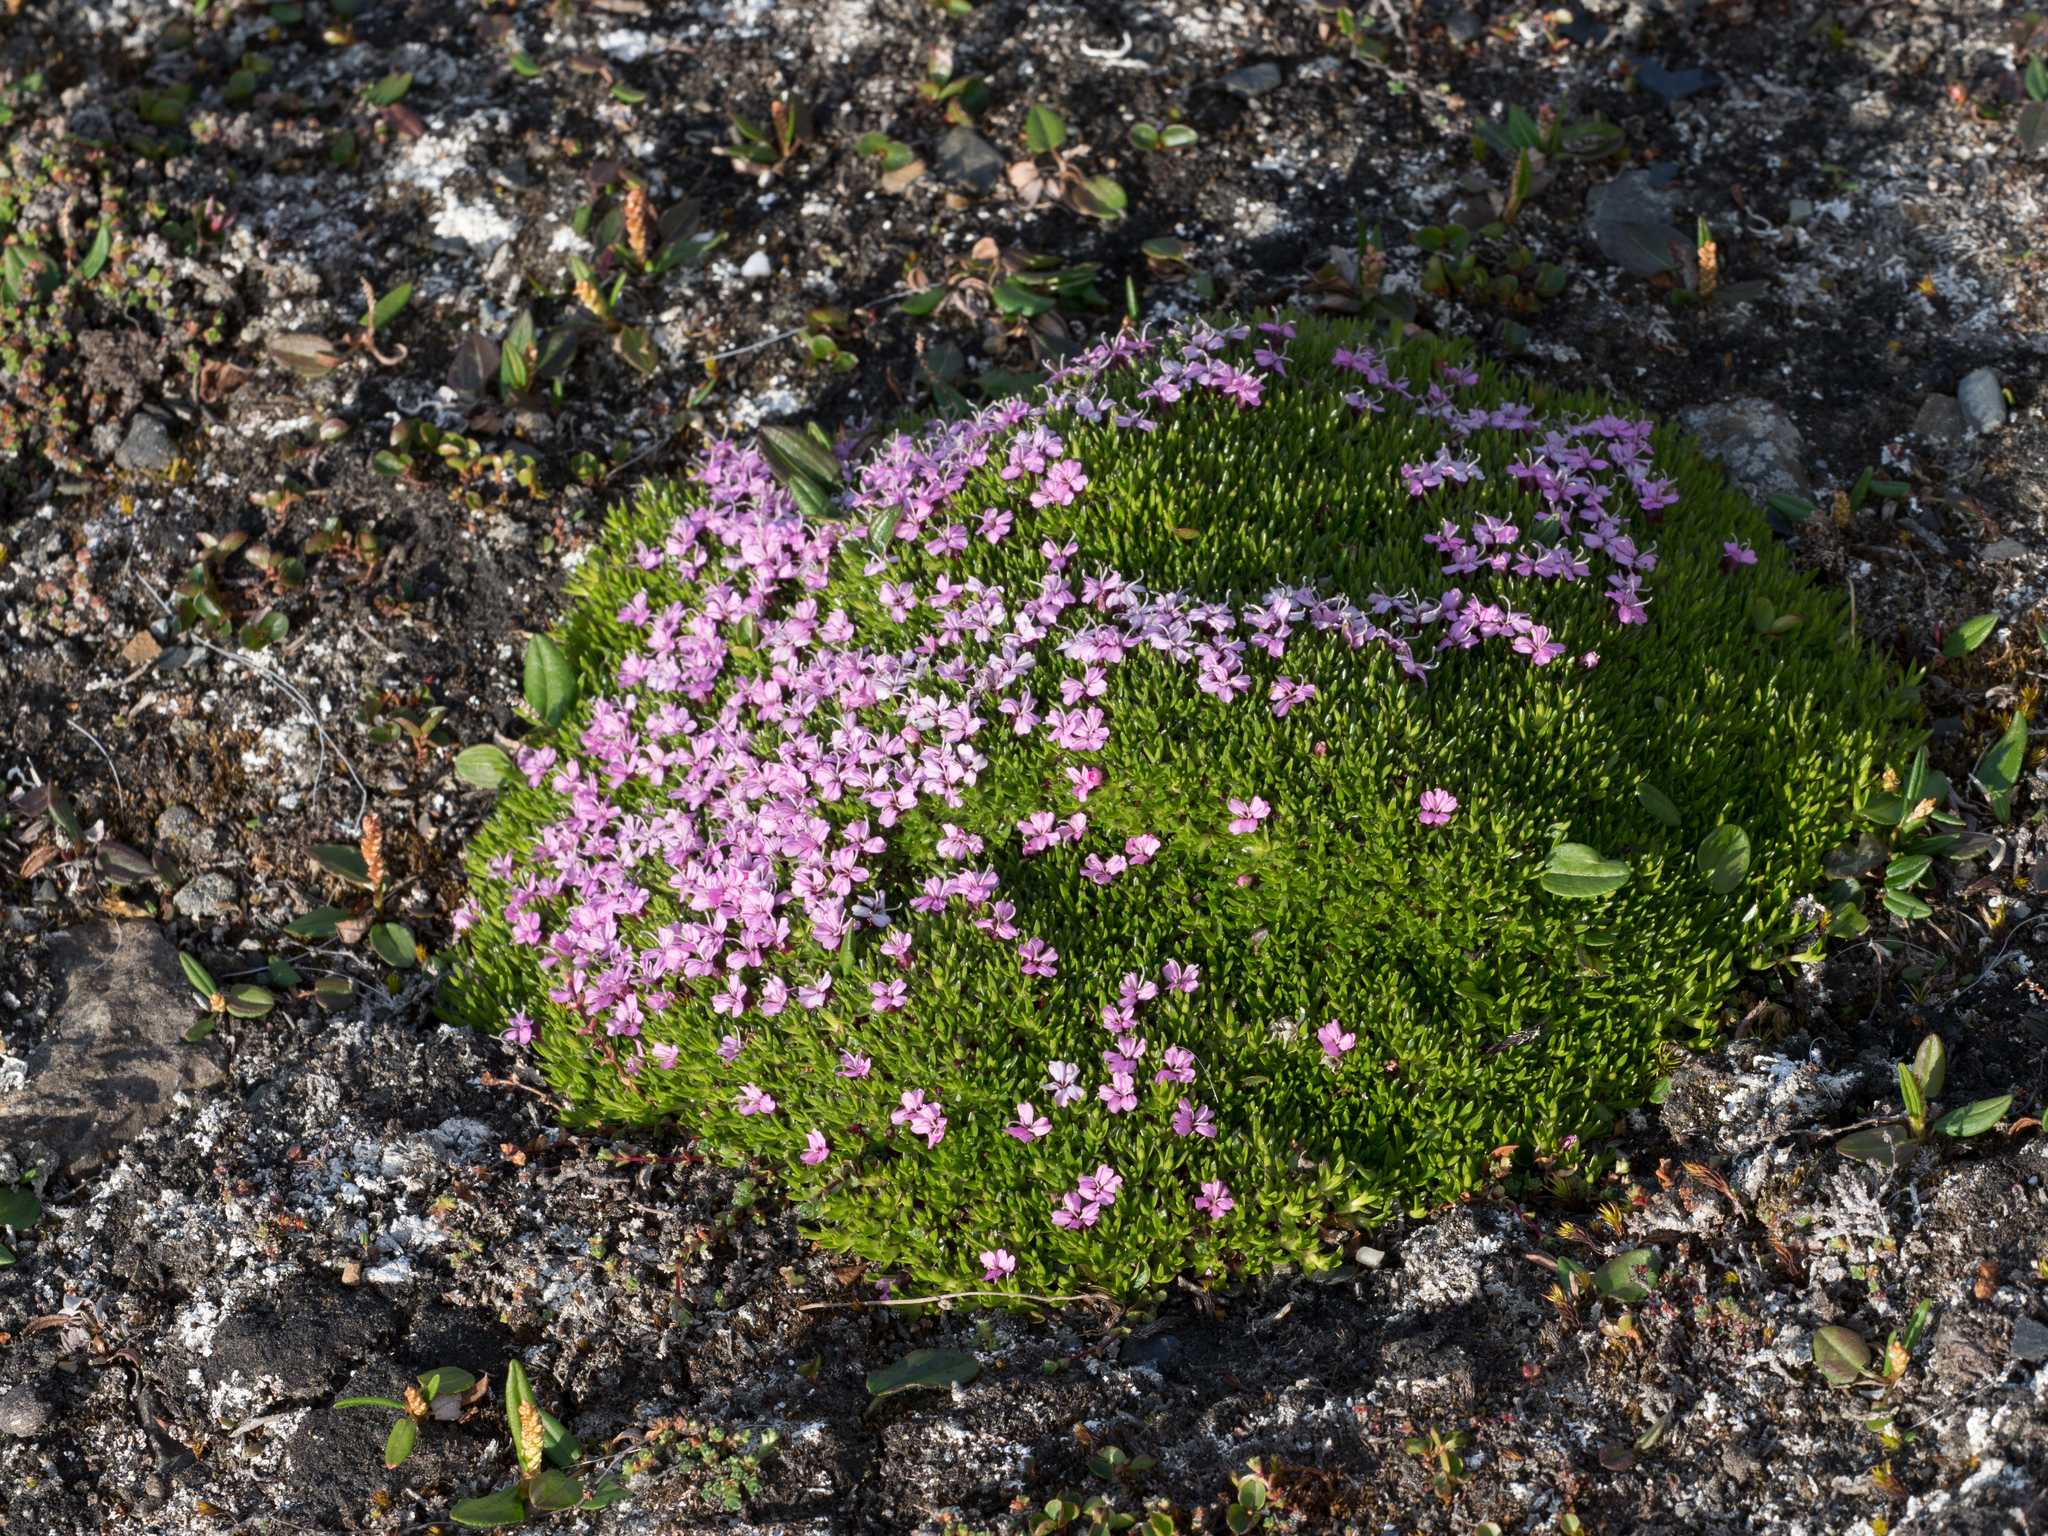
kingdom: Plantae
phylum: Tracheophyta
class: Magnoliopsida
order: Caryophyllales
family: Caryophyllaceae
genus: Silene
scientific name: Silene acaulis
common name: Moss campion
